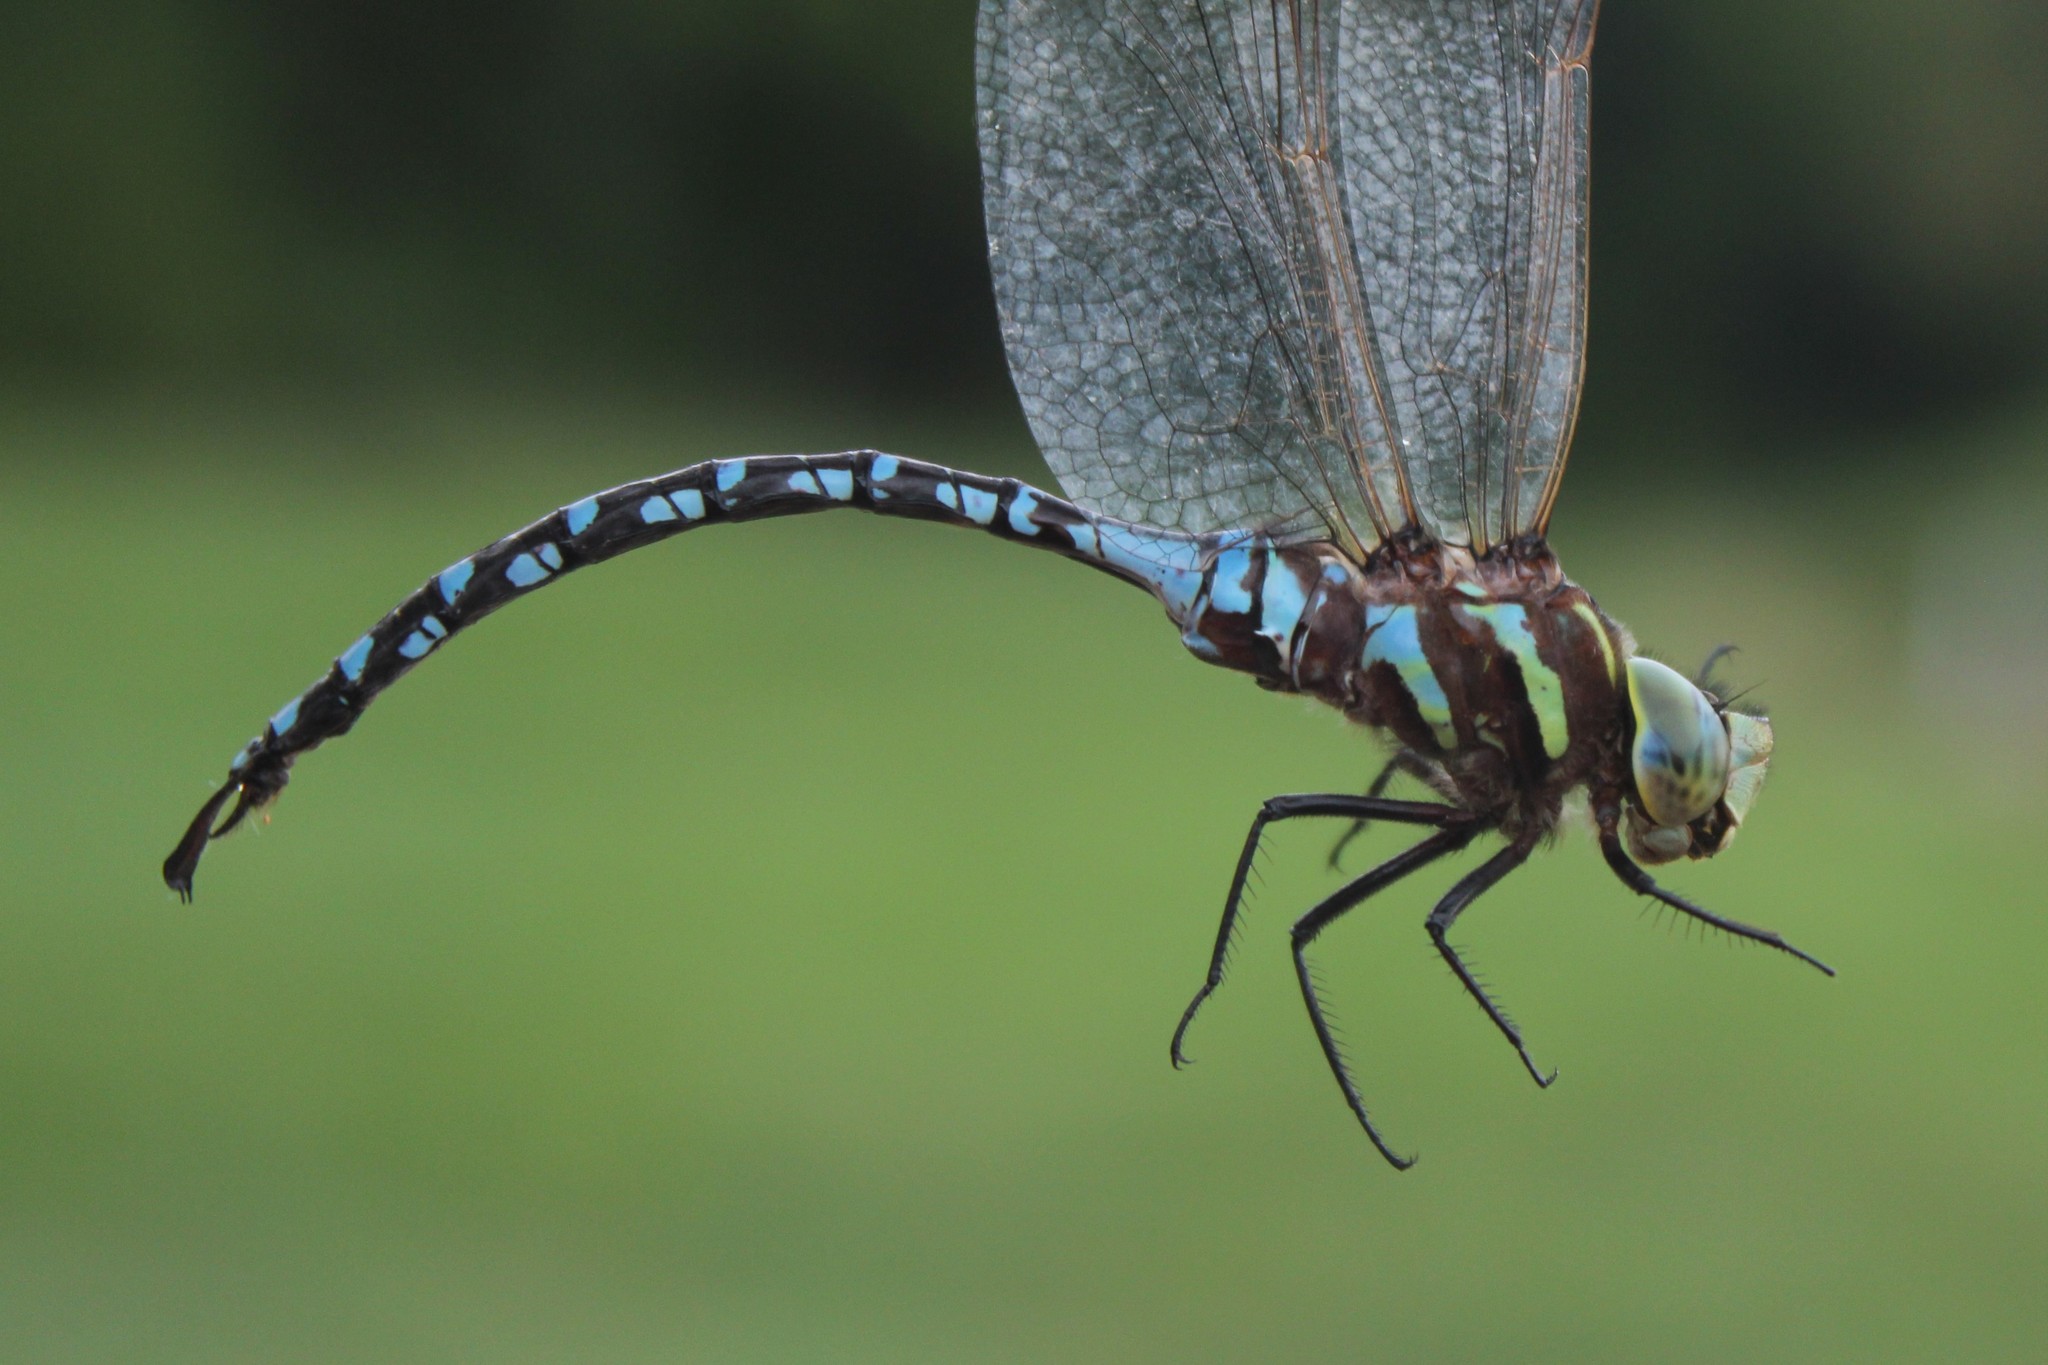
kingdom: Animalia
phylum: Arthropoda
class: Insecta
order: Odonata
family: Aeshnidae
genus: Aeshna
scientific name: Aeshna constricta
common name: Lance-tipped darner
